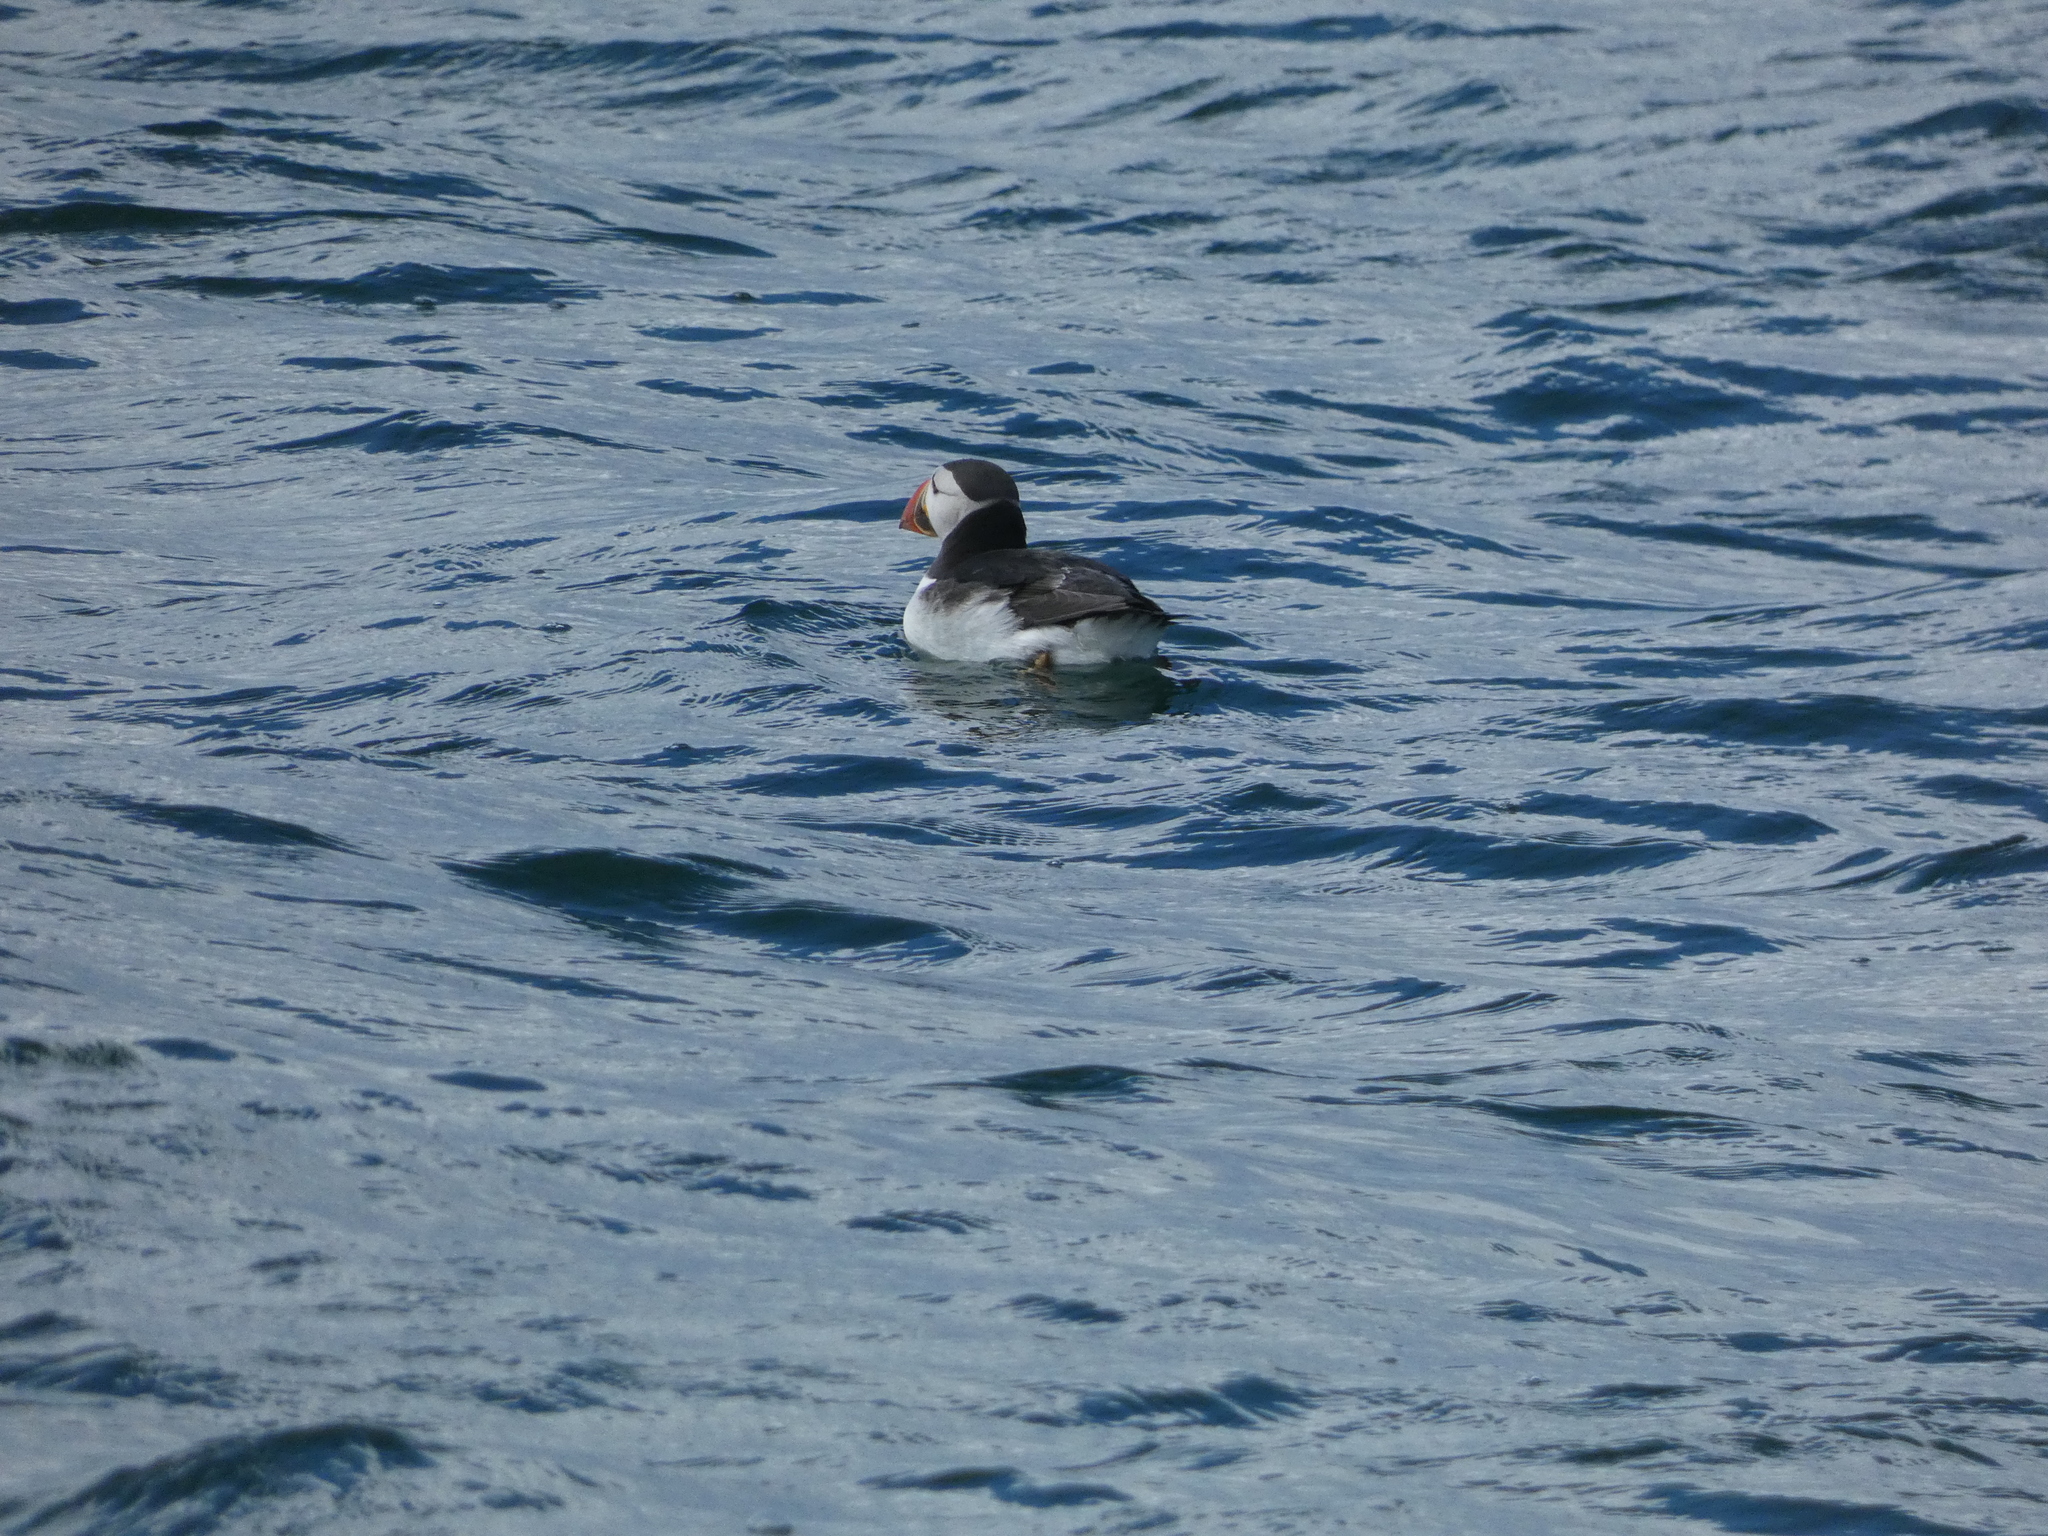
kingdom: Animalia
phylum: Chordata
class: Aves
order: Charadriiformes
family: Alcidae
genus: Fratercula
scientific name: Fratercula arctica
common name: Atlantic puffin
